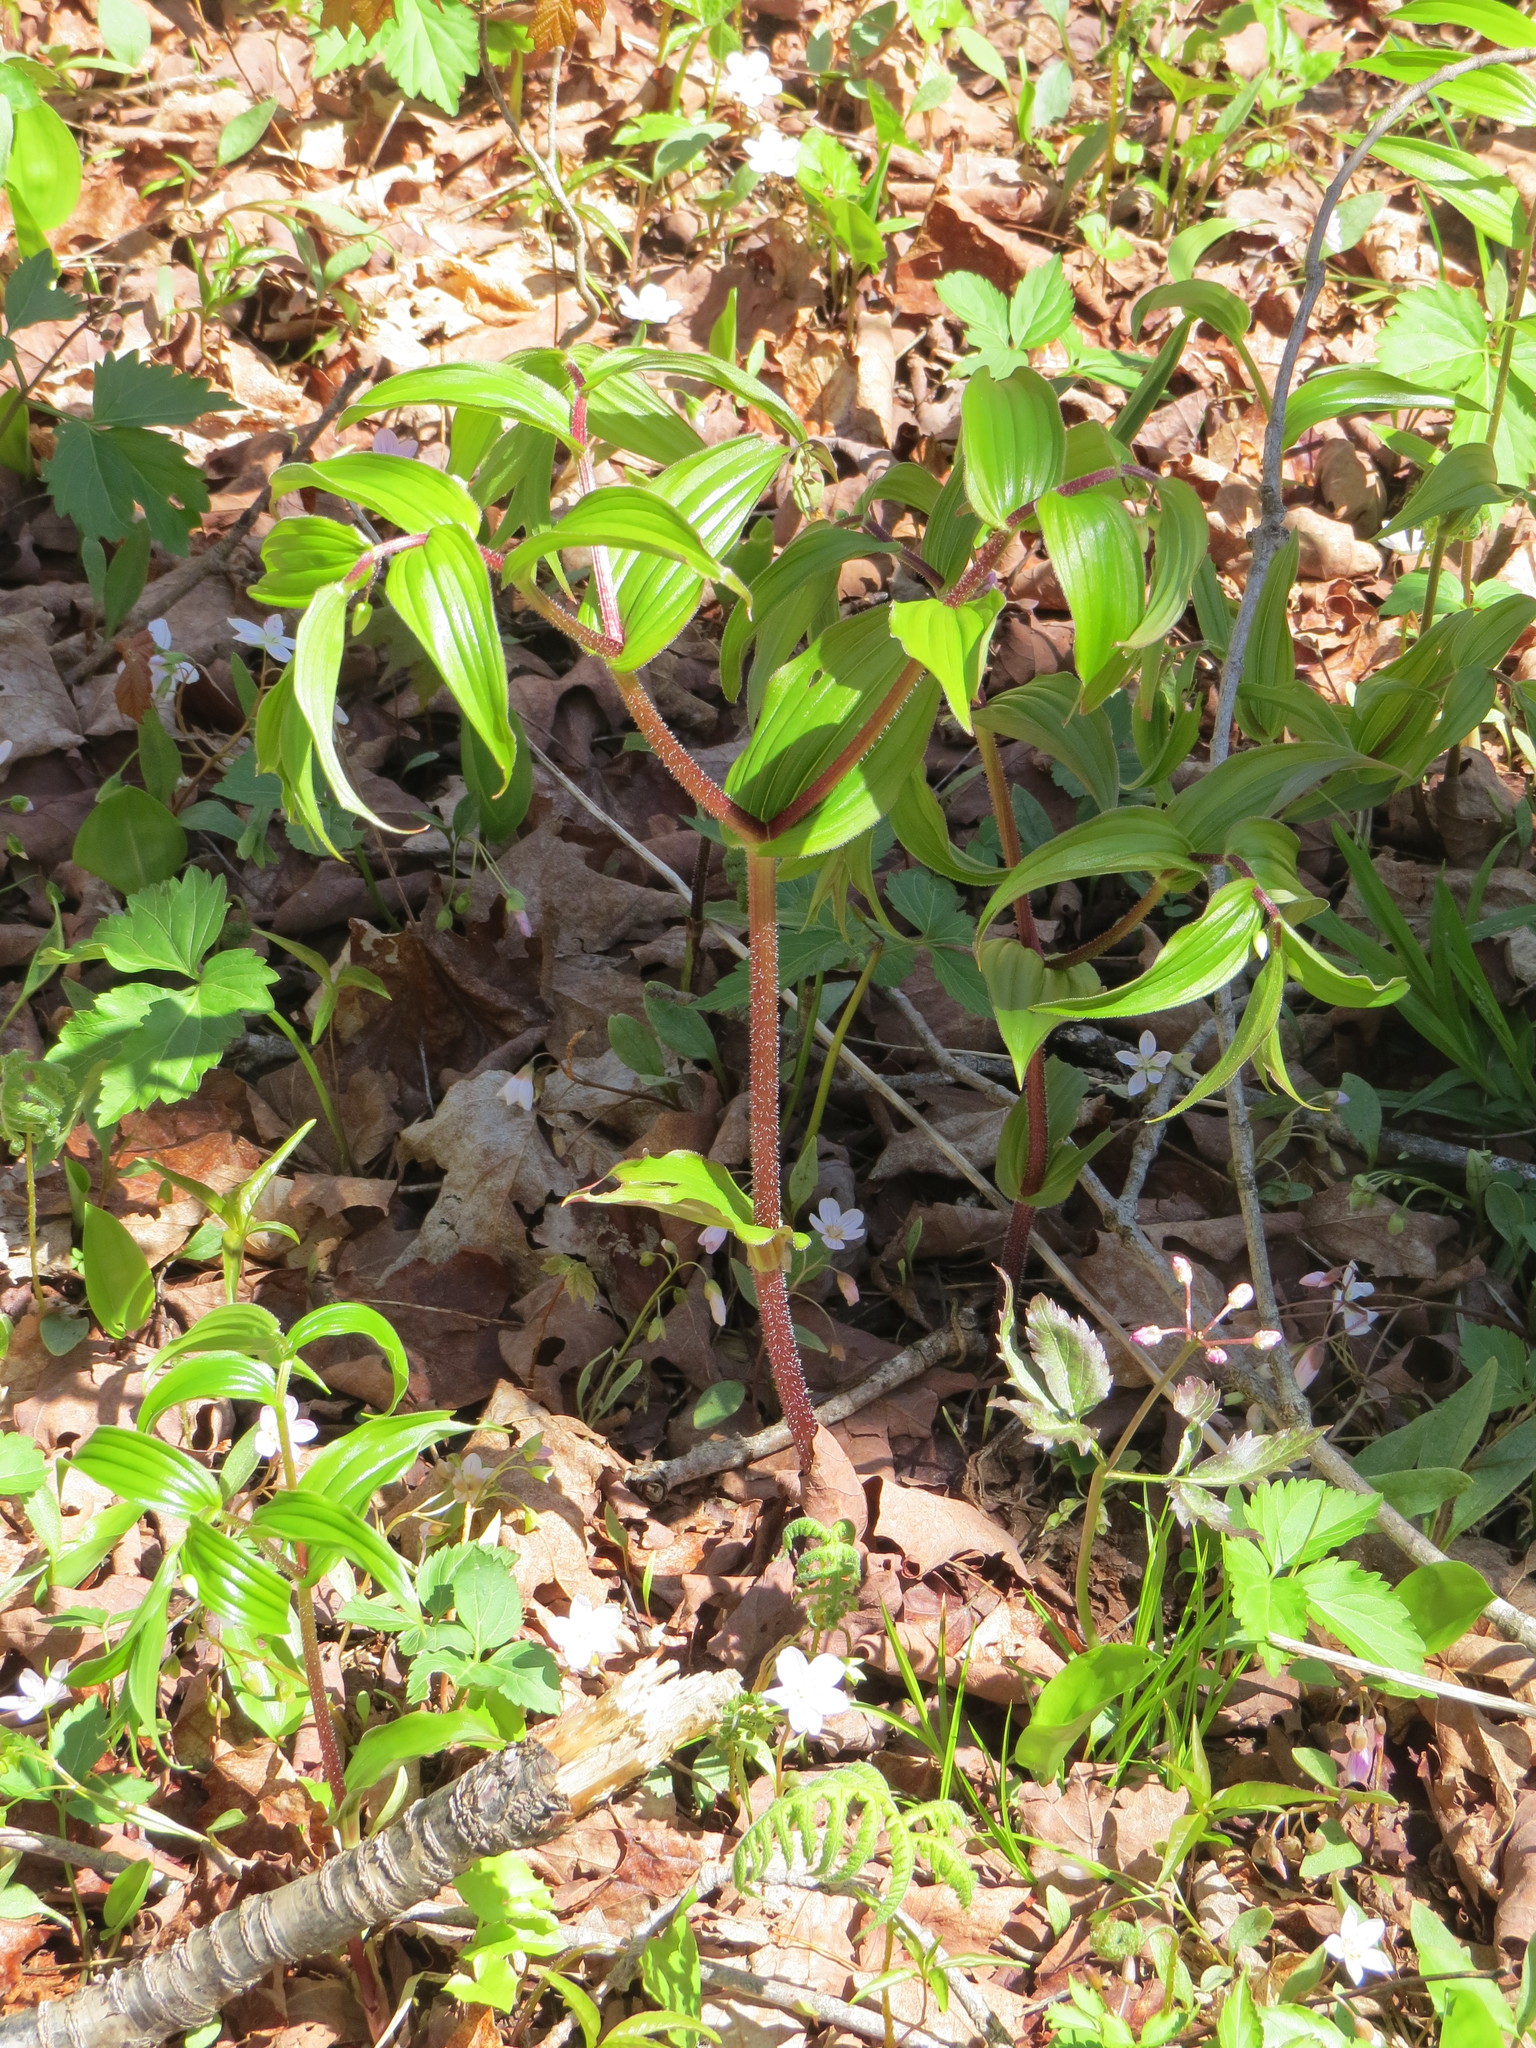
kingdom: Plantae
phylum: Tracheophyta
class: Liliopsida
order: Liliales
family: Liliaceae
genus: Streptopus
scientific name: Streptopus lanceolatus
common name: Rose mandarin
